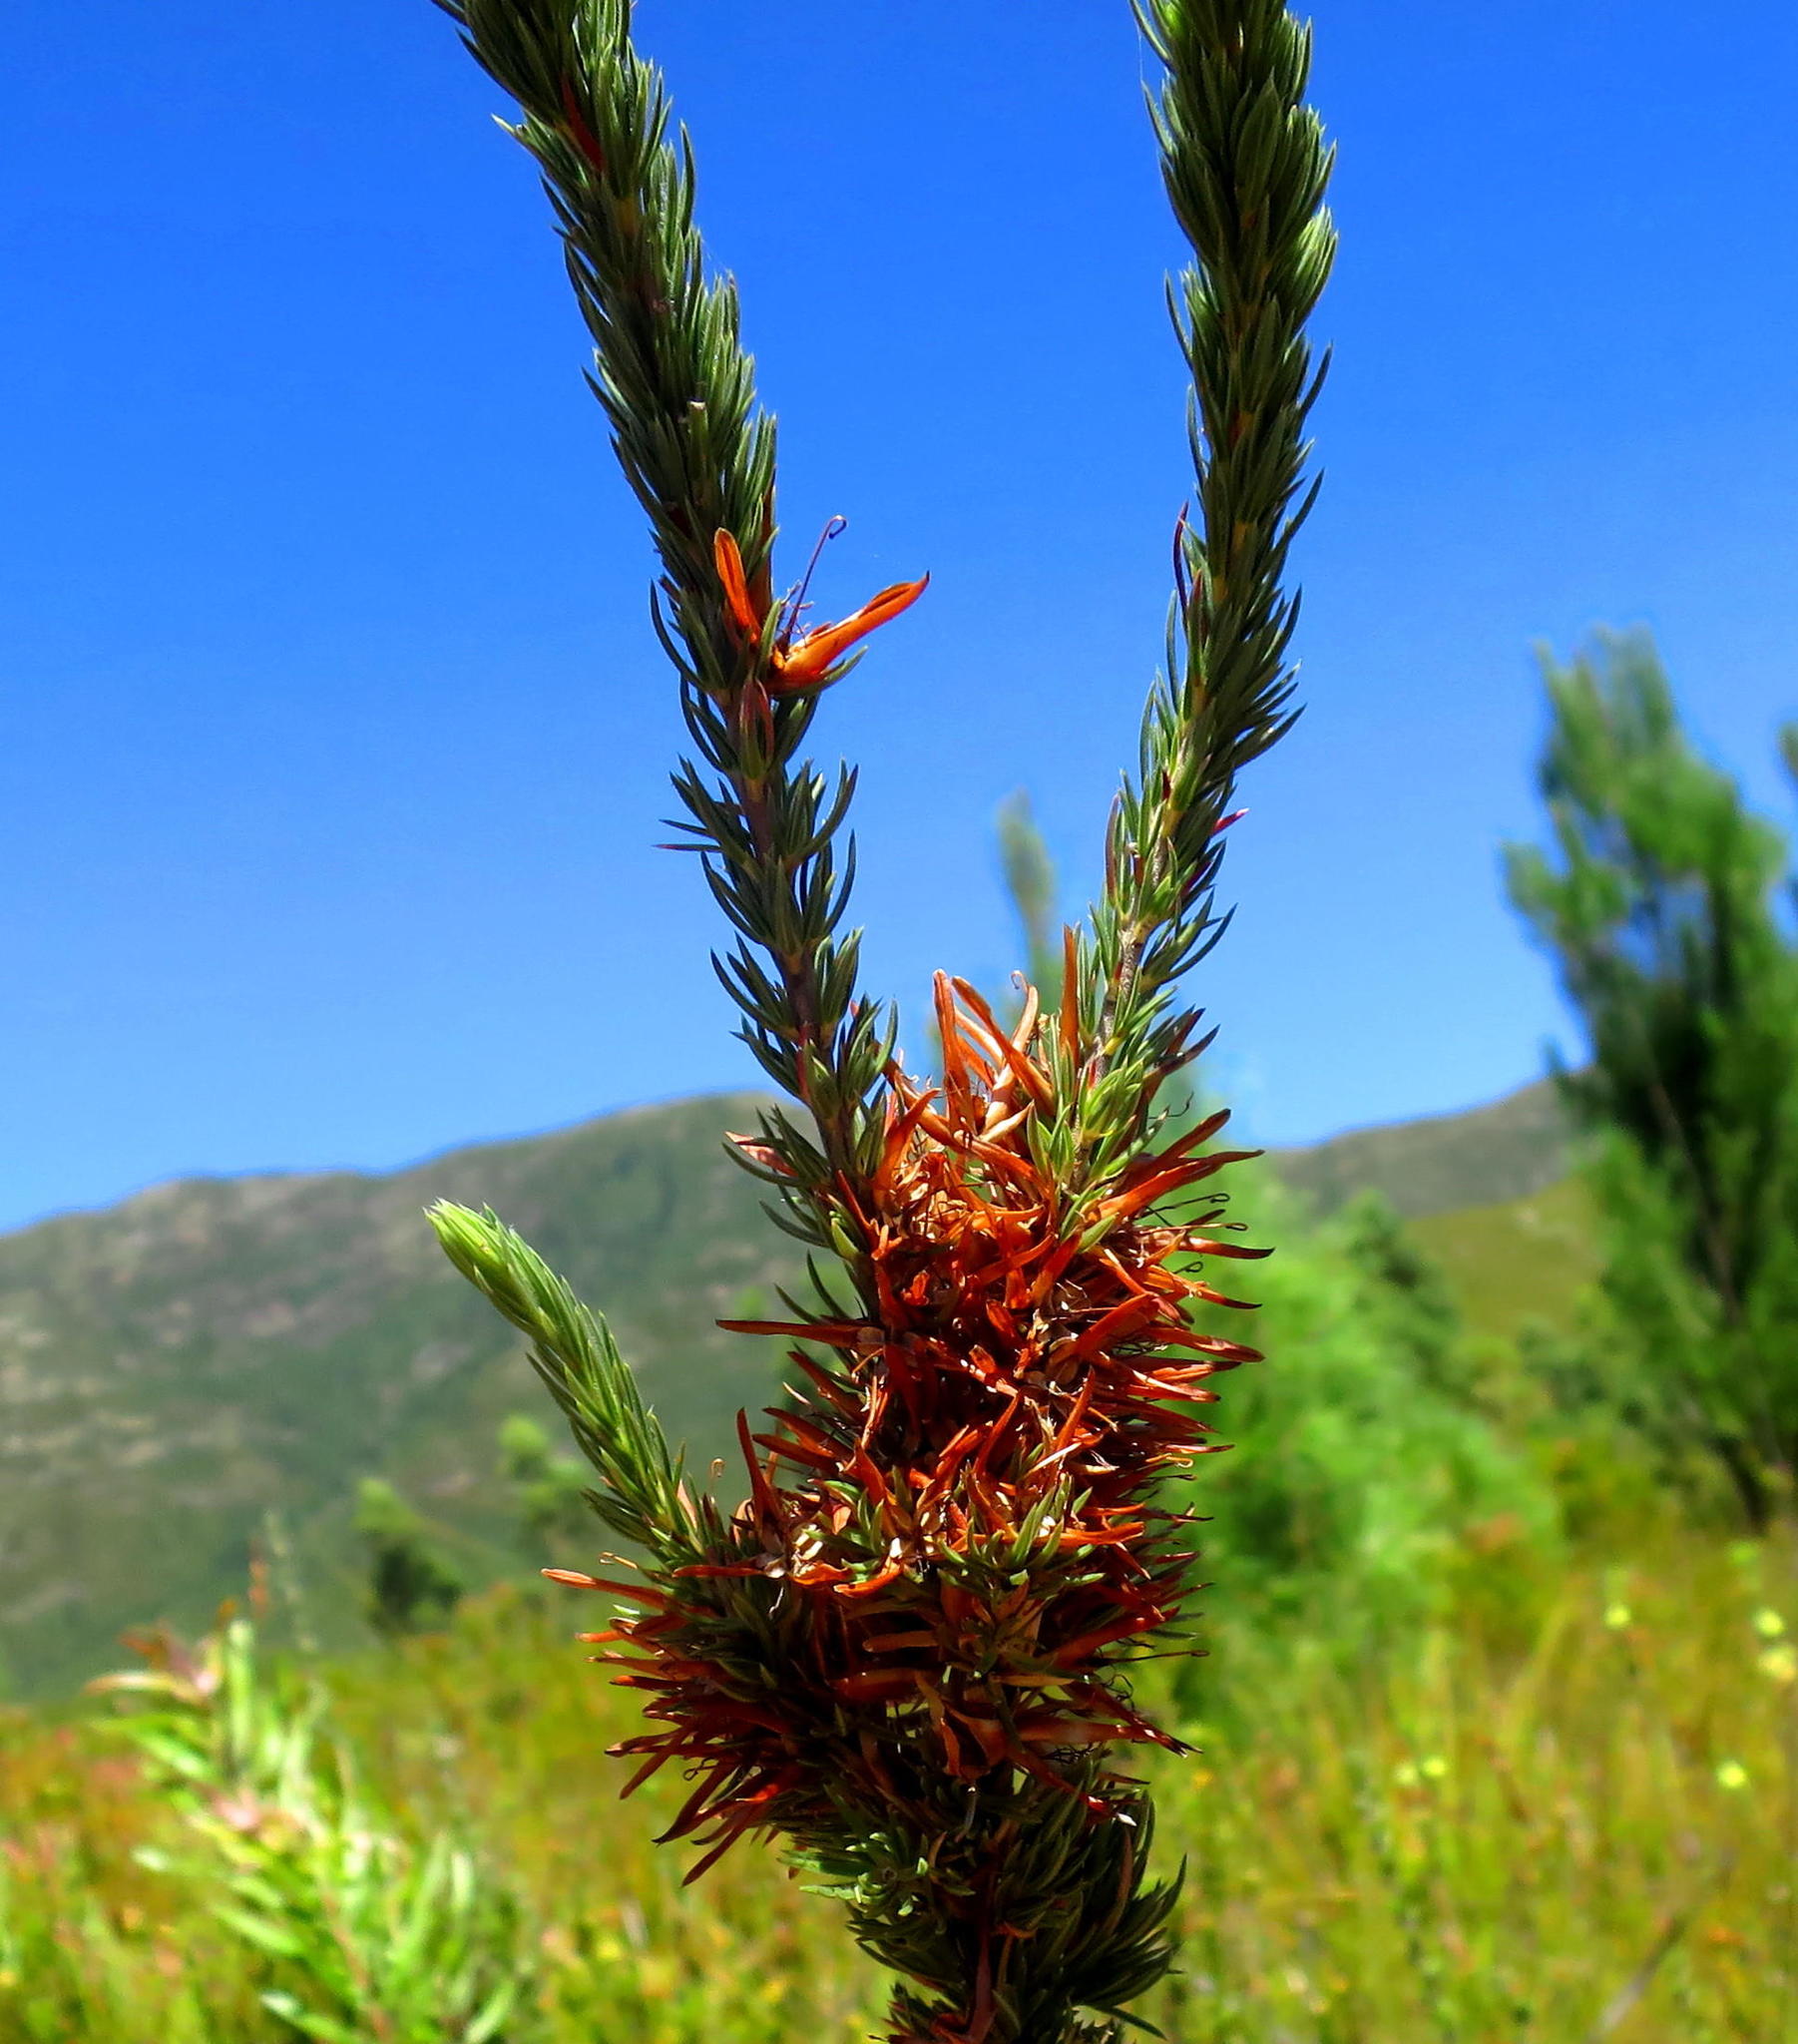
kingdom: Plantae
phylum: Tracheophyta
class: Magnoliopsida
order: Ericales
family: Ericaceae
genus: Erica
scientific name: Erica nabea
